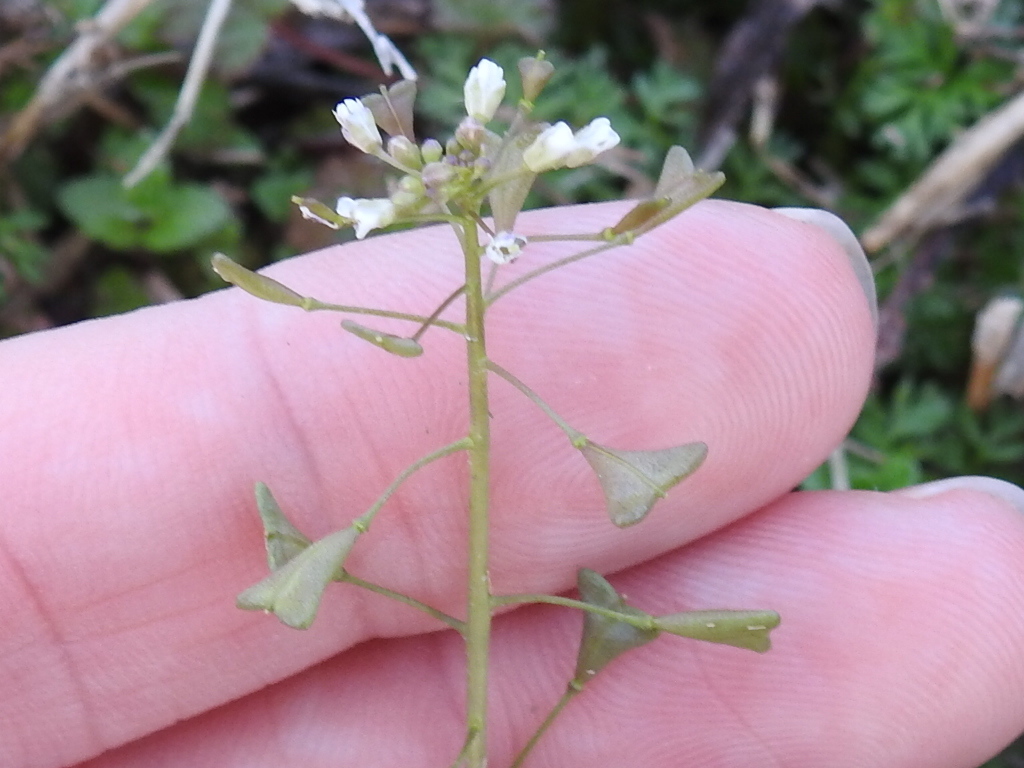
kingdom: Plantae
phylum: Tracheophyta
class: Magnoliopsida
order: Brassicales
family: Brassicaceae
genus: Capsella
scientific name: Capsella bursa-pastoris
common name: Shepherd's purse
